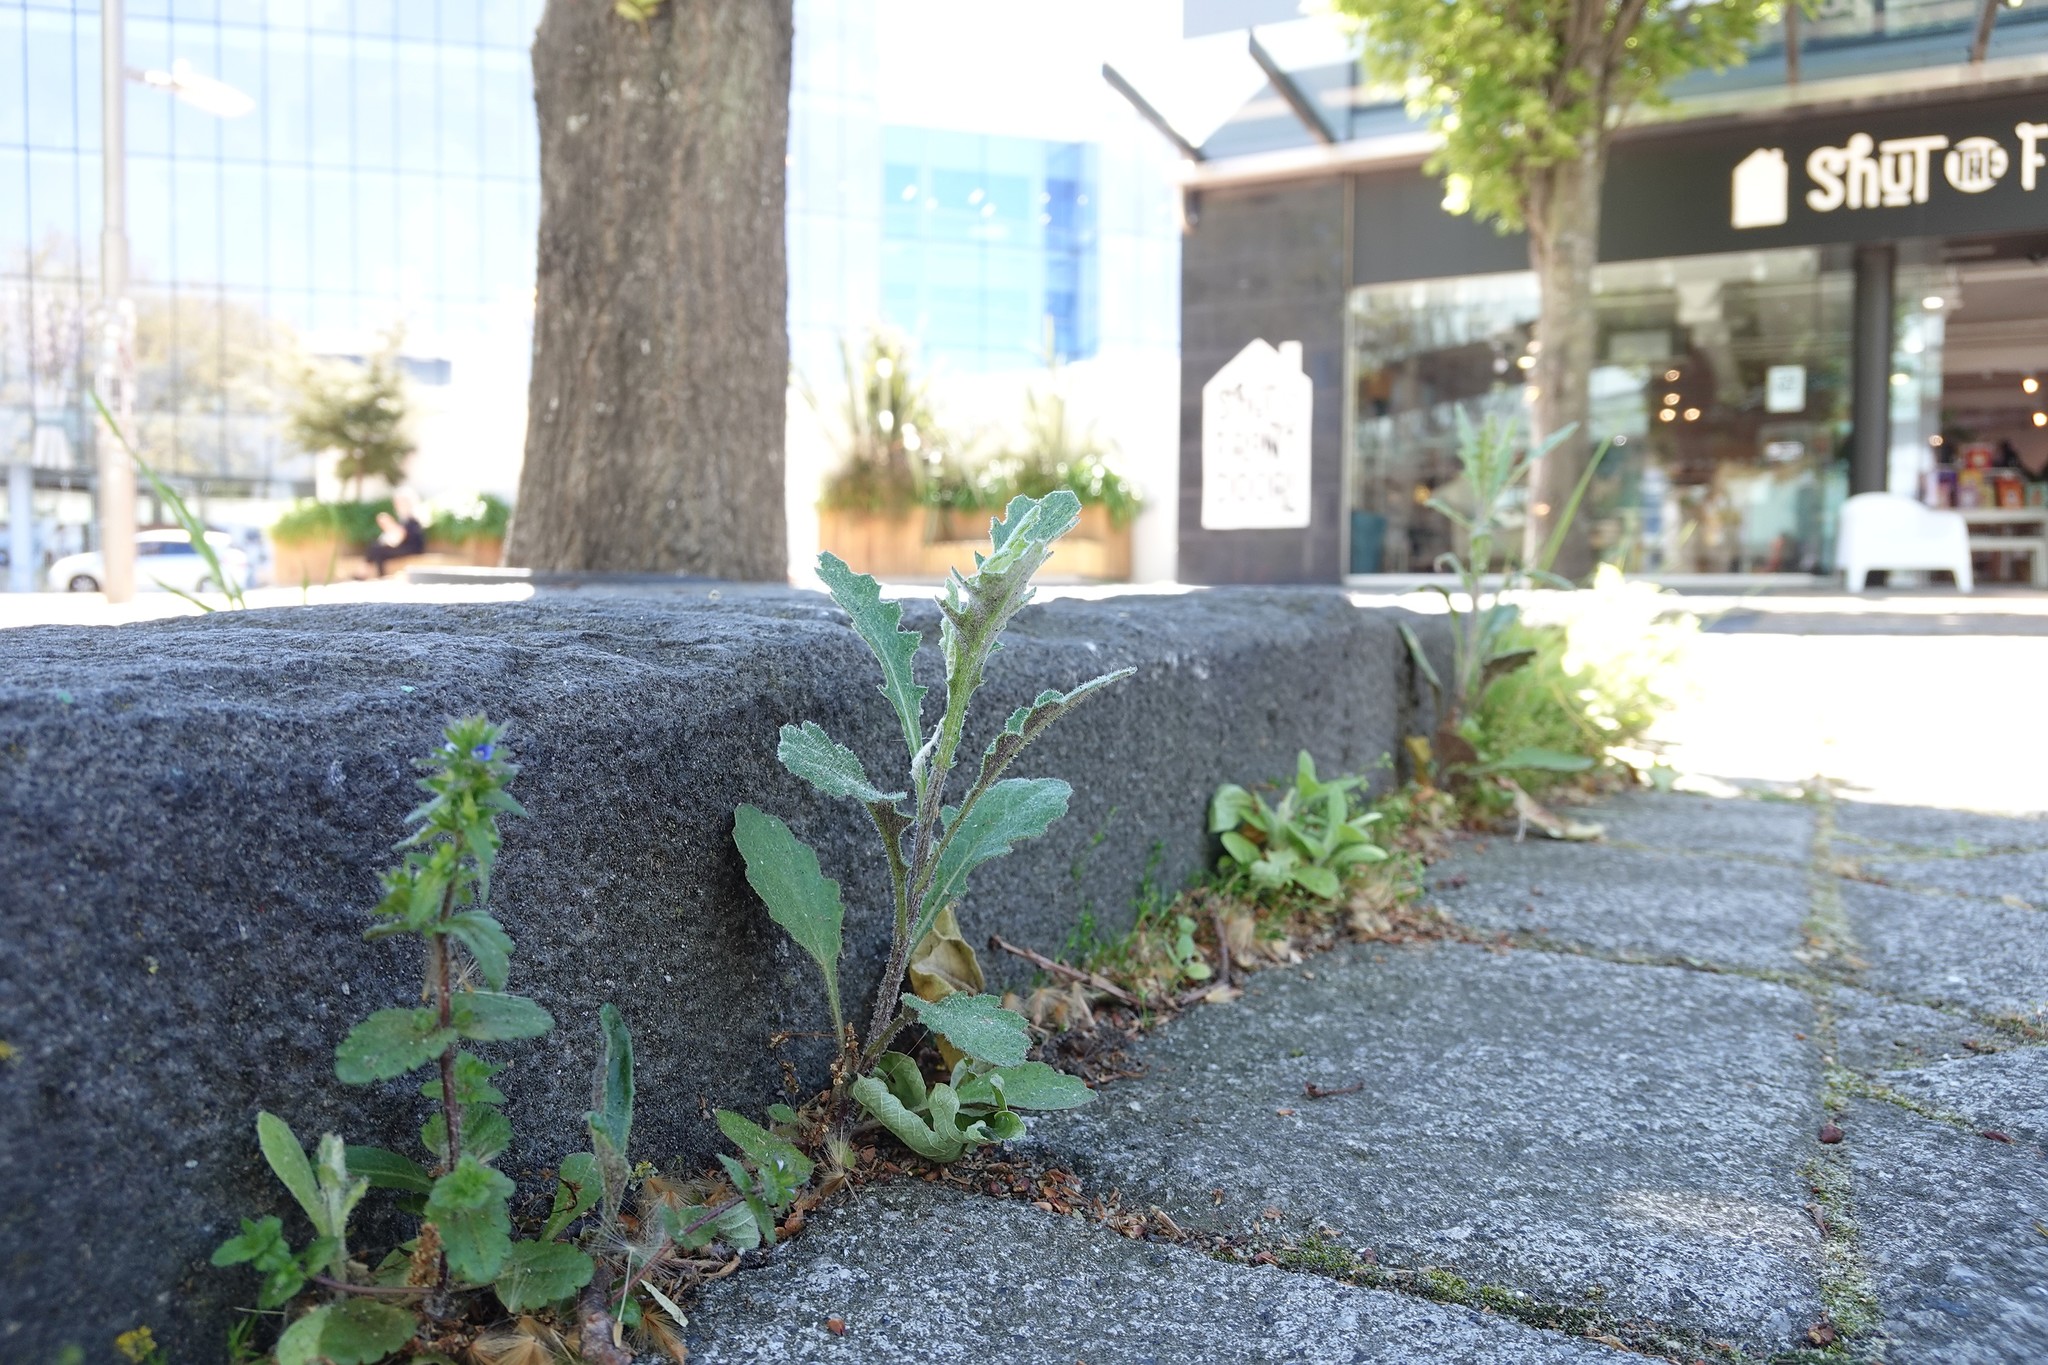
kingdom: Plantae
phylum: Tracheophyta
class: Magnoliopsida
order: Asterales
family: Asteraceae
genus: Senecio
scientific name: Senecio glomeratus
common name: Cutleaf burnweed
